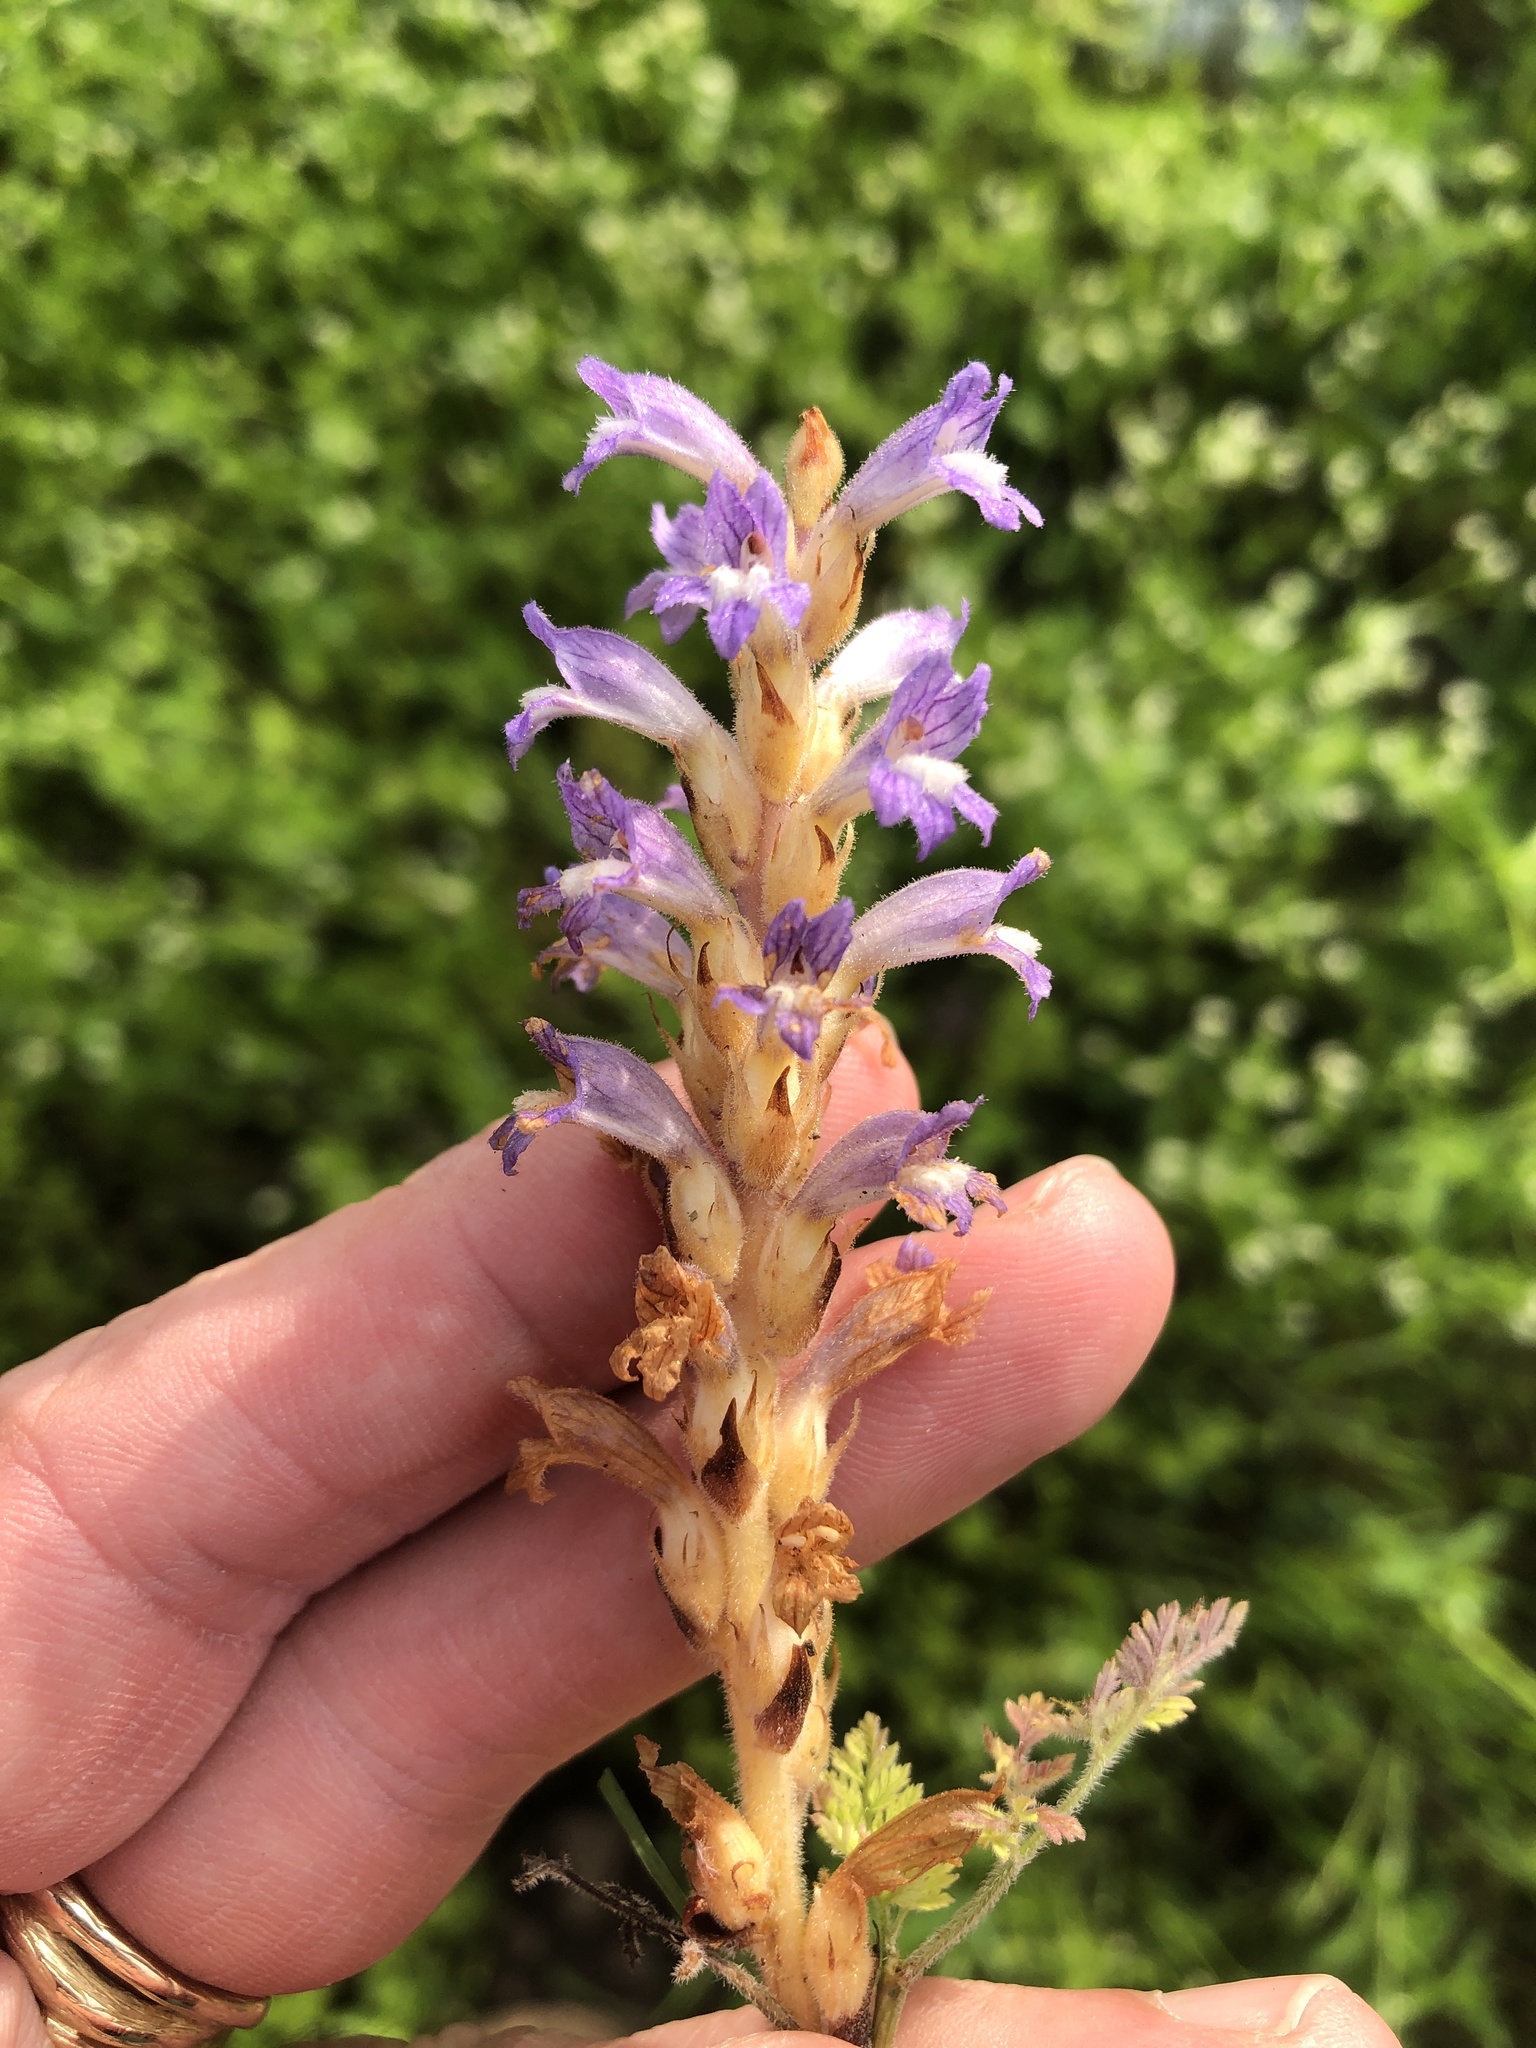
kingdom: Plantae
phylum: Tracheophyta
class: Magnoliopsida
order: Lamiales
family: Orobanchaceae
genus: Phelipanche
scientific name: Phelipanche mutelii
